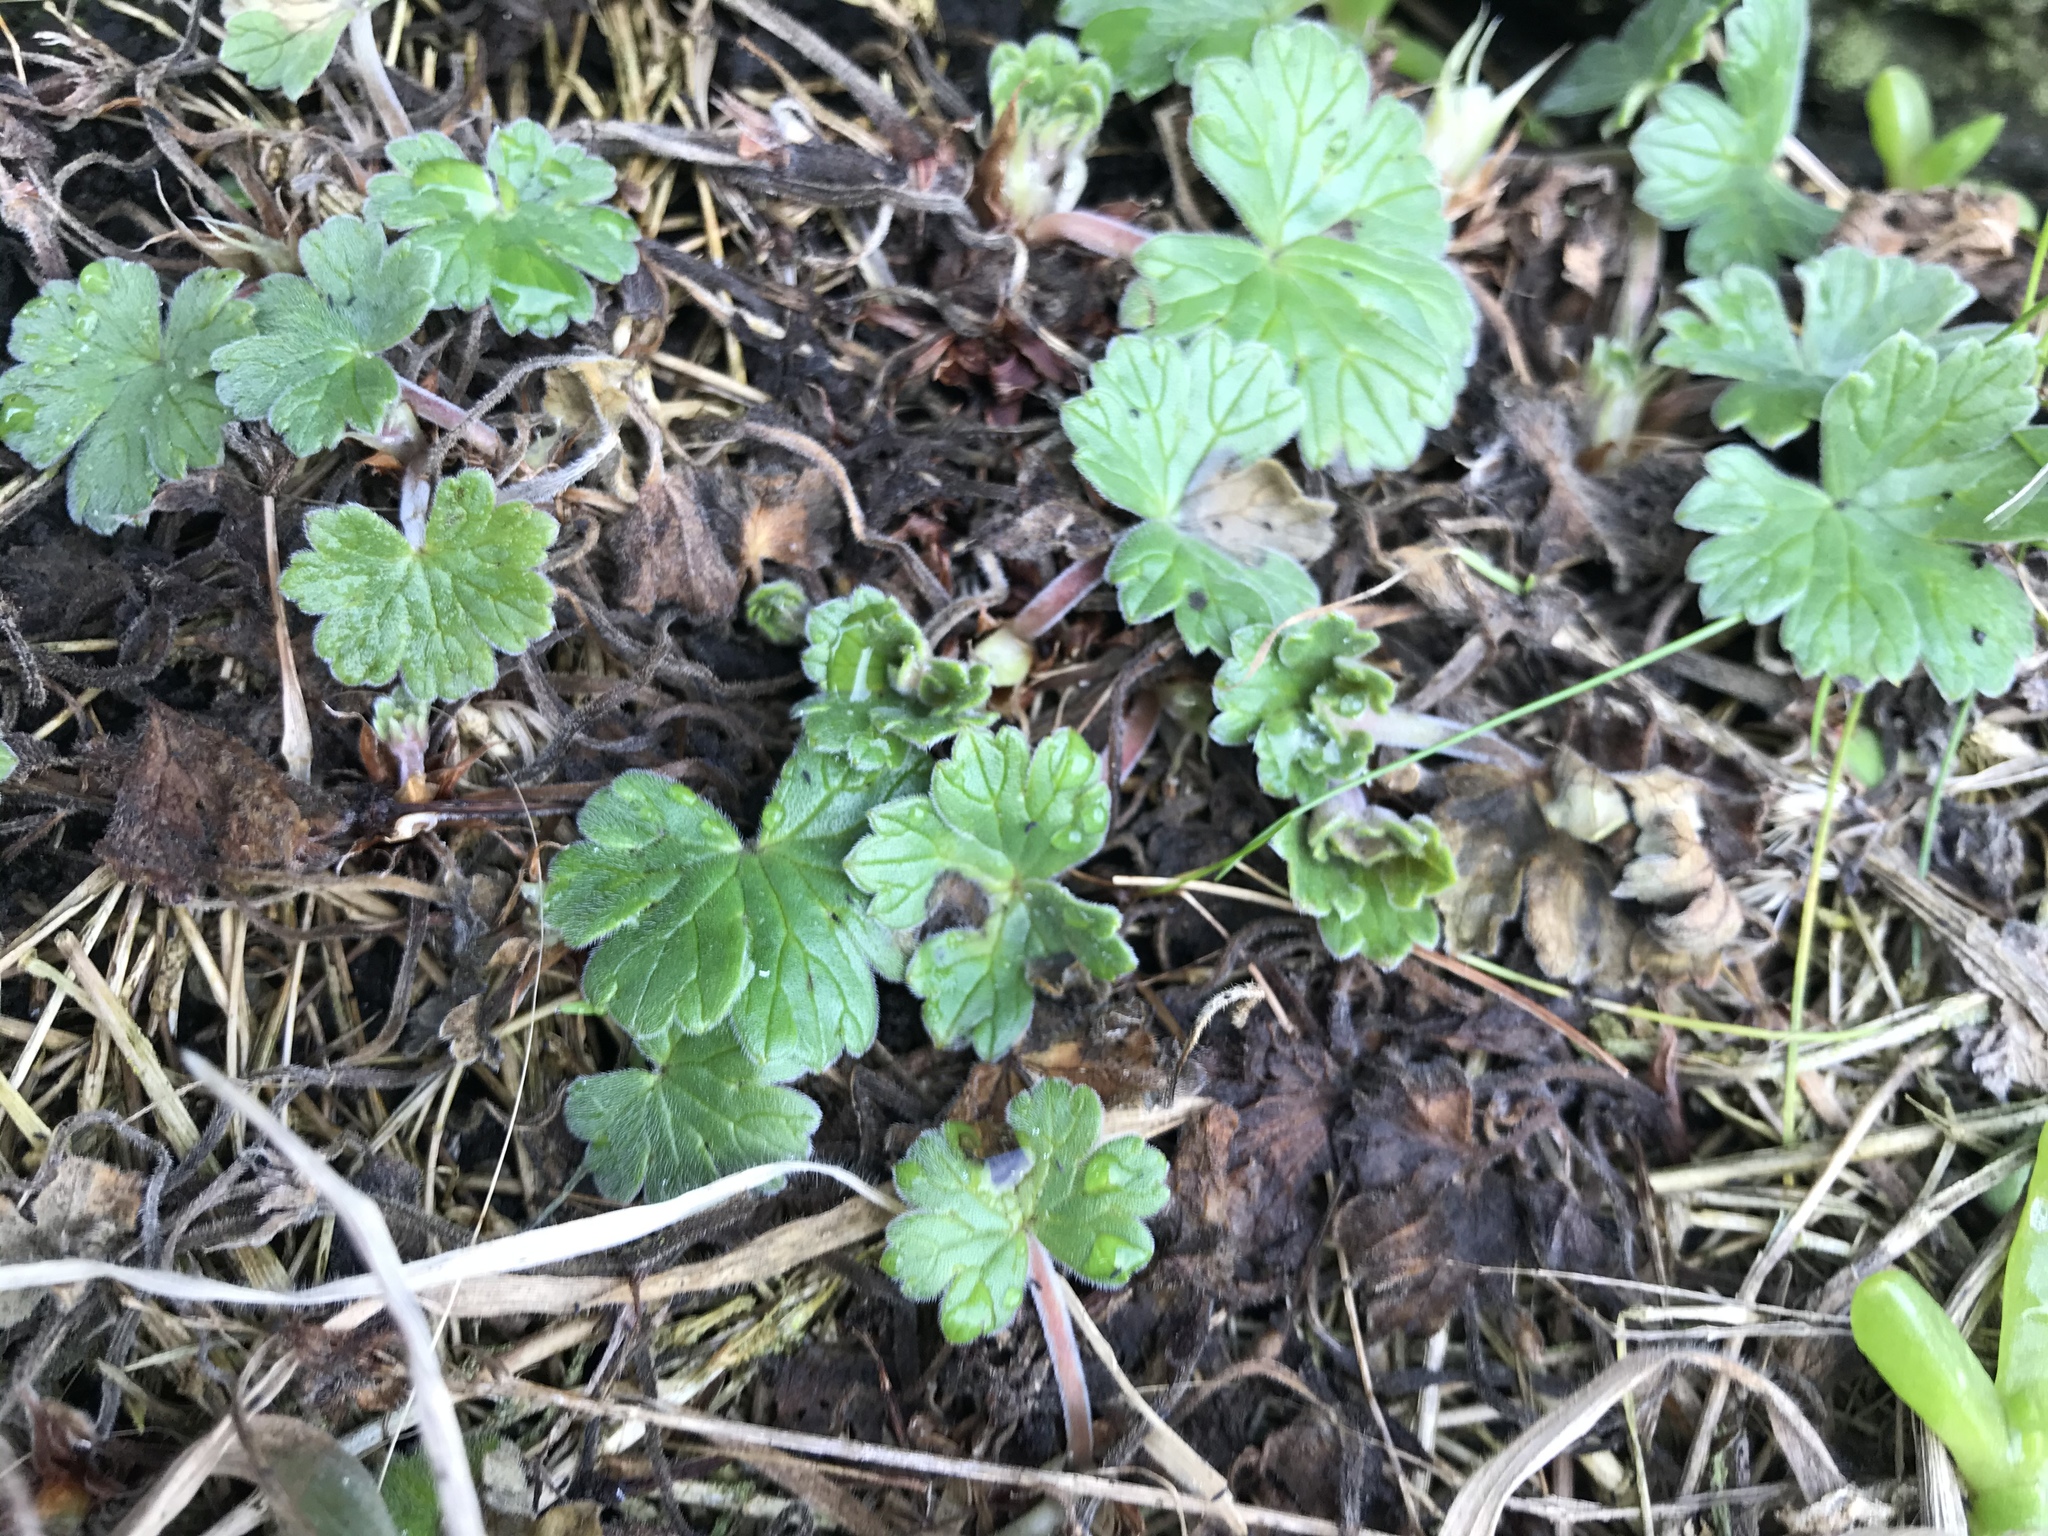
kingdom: Plantae
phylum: Tracheophyta
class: Magnoliopsida
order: Geraniales
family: Geraniaceae
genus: Geranium
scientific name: Geranium traversii
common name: Cranesbill
